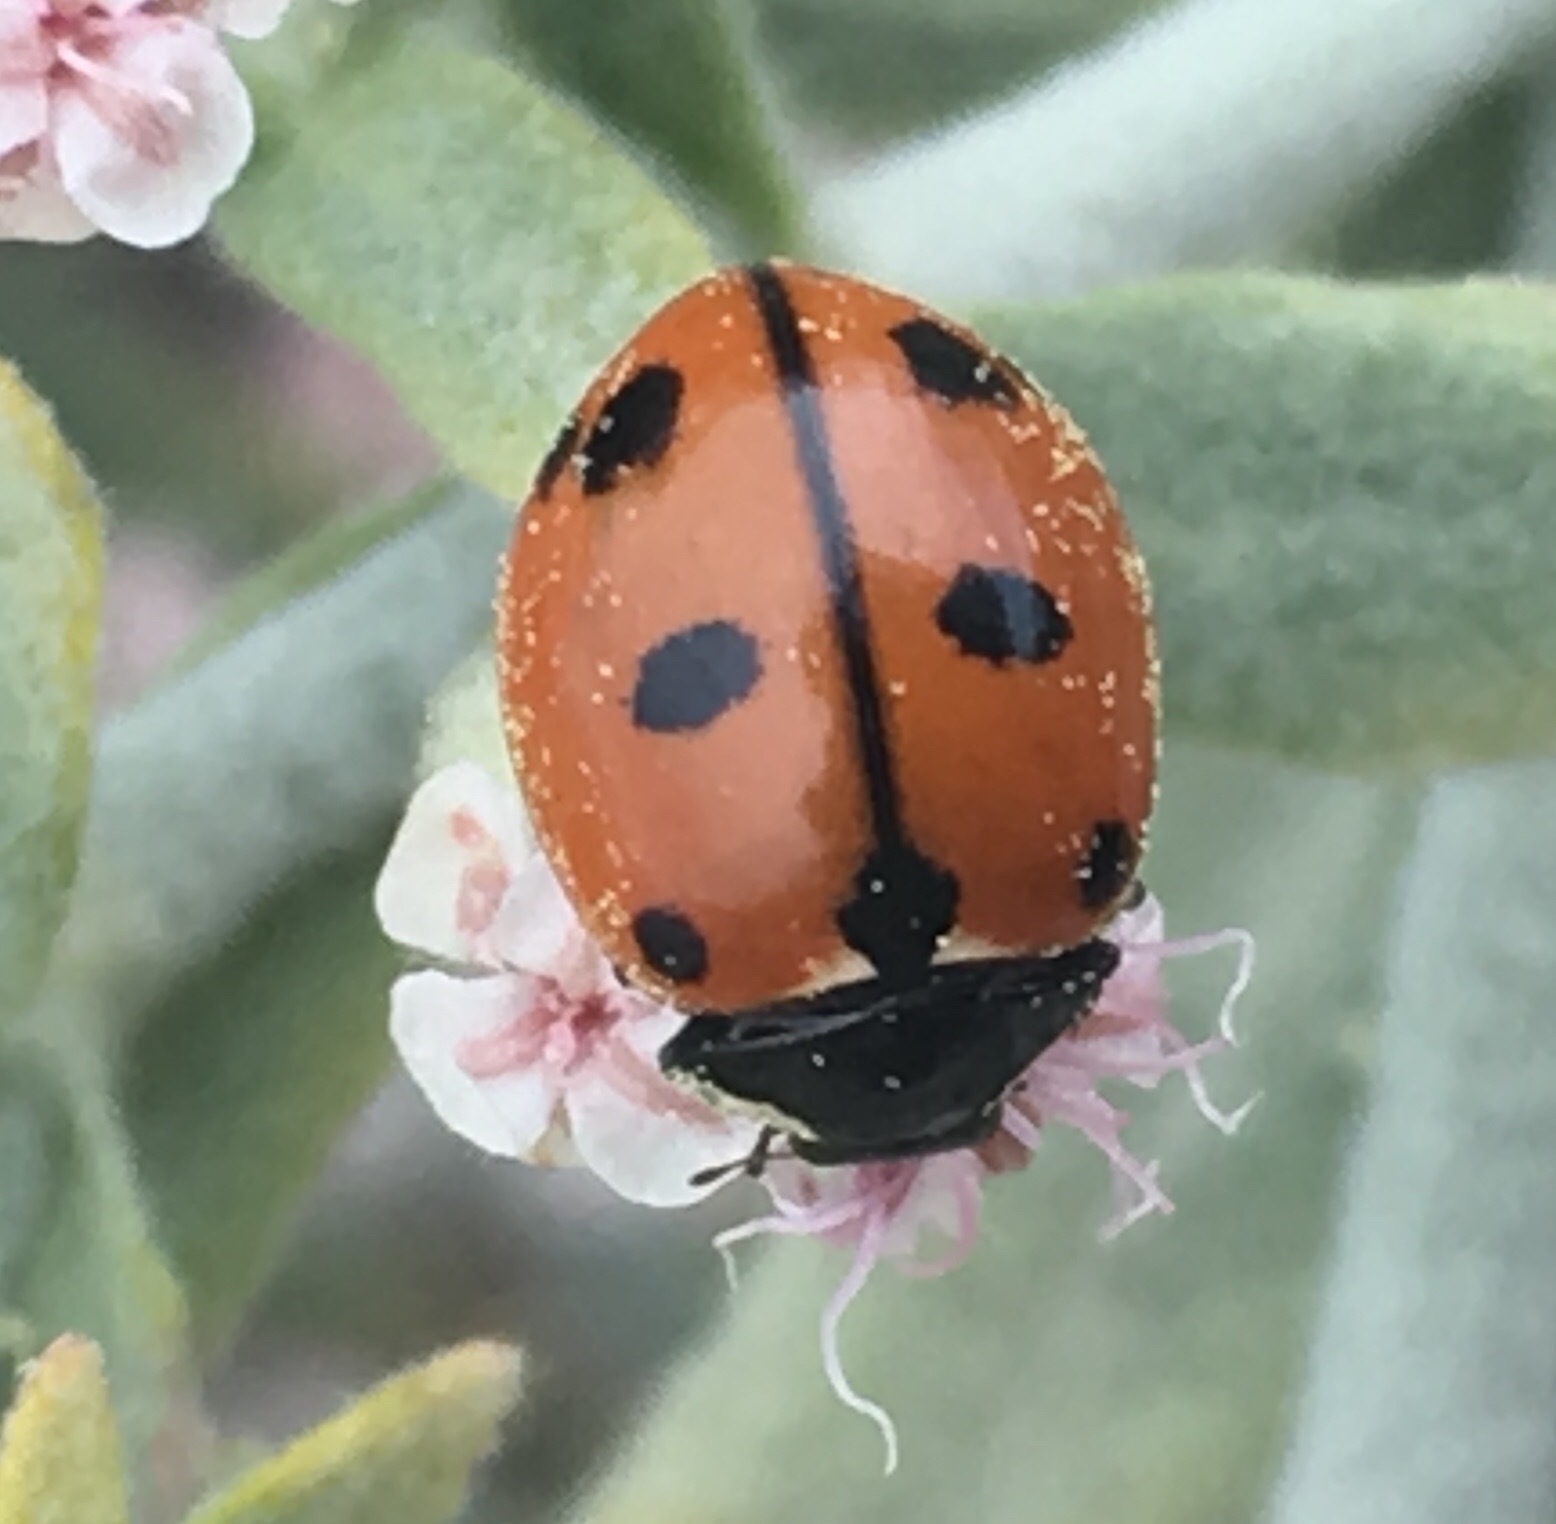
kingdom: Animalia
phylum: Arthropoda
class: Insecta
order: Coleoptera
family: Coccinellidae
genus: Coccinella
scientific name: Coccinella californica
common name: Lady beetle
